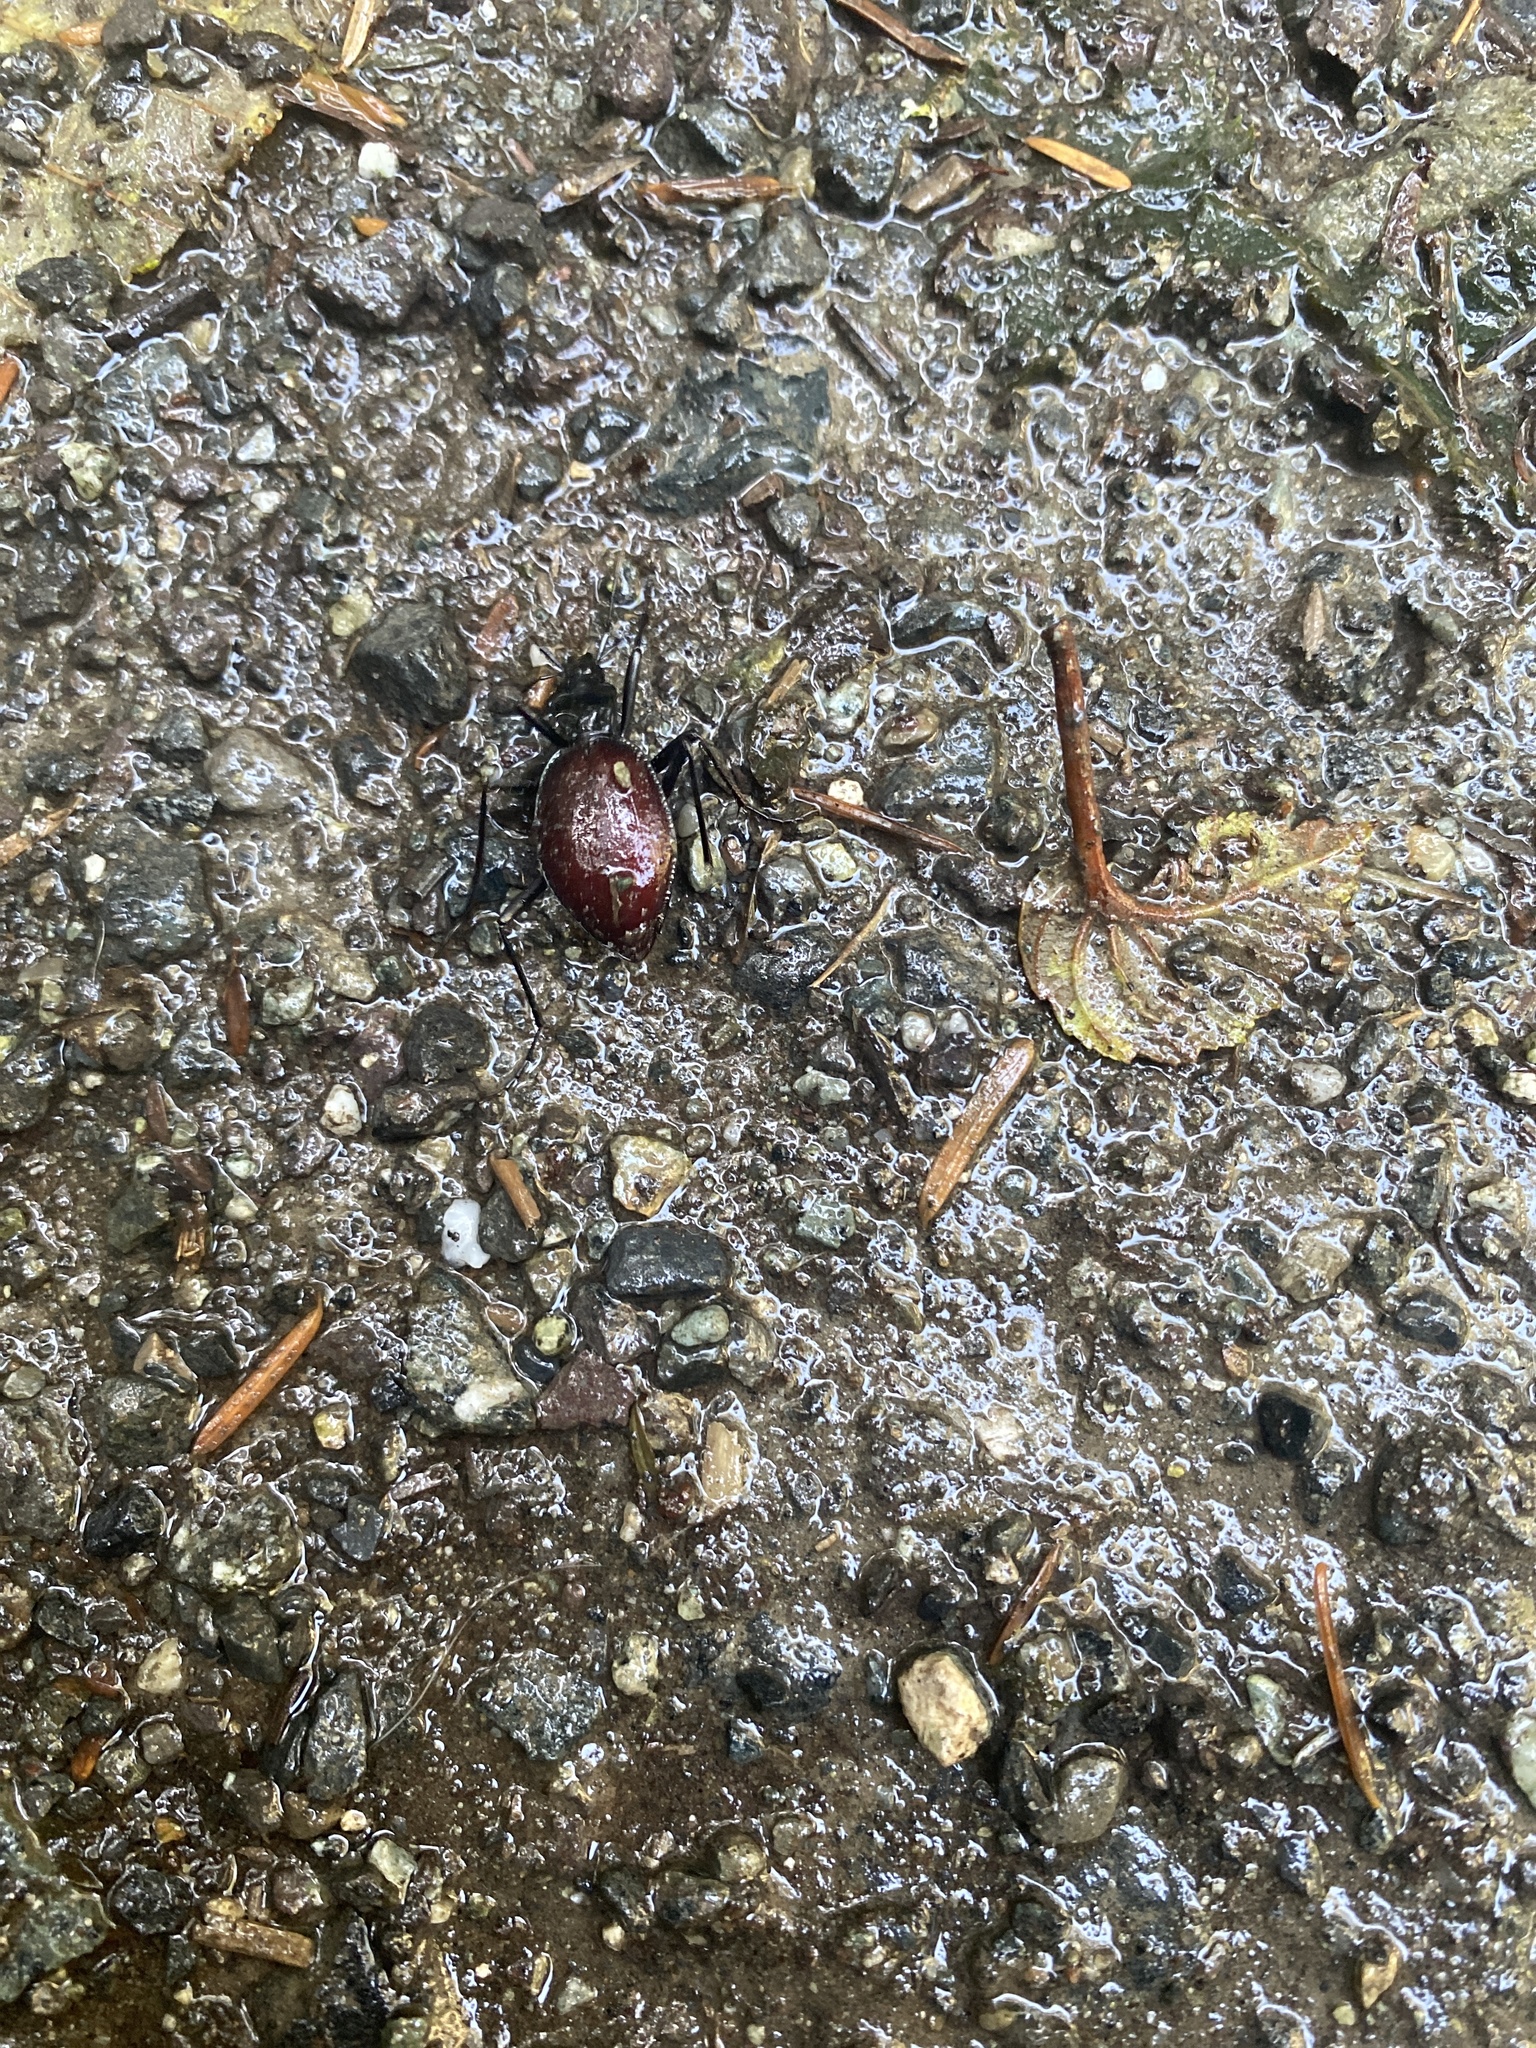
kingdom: Animalia
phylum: Arthropoda
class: Insecta
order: Coleoptera
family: Carabidae
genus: Scaphinotus
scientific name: Scaphinotus angusticollis
